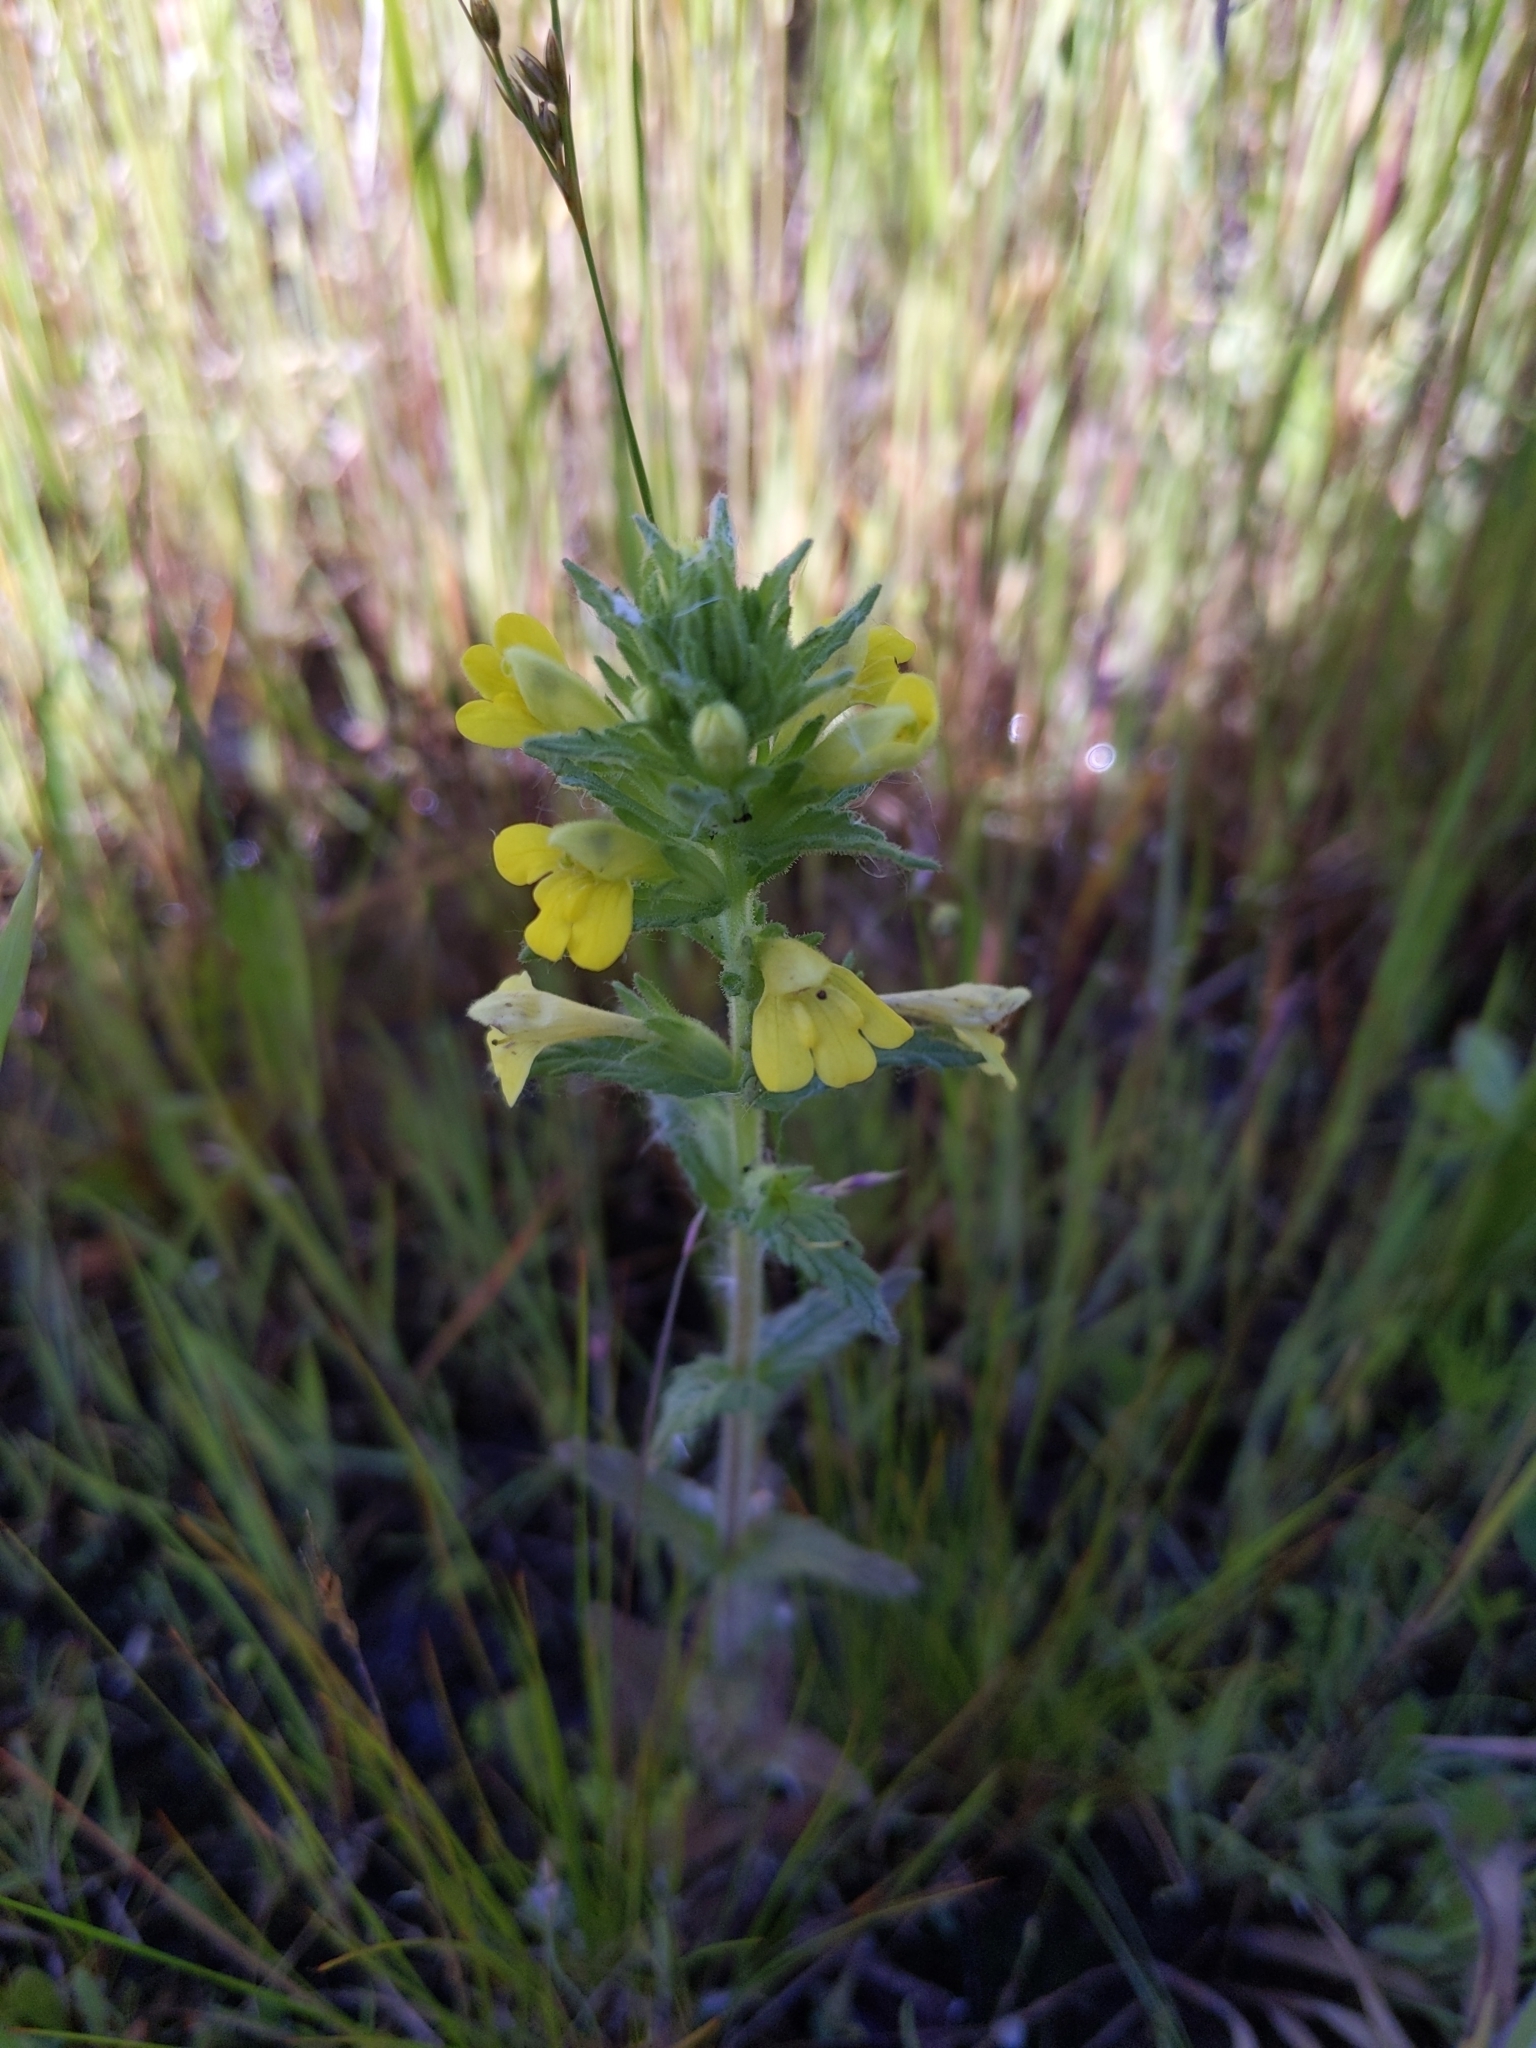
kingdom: Plantae
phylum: Tracheophyta
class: Magnoliopsida
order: Lamiales
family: Orobanchaceae
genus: Bellardia
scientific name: Bellardia viscosa
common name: Sticky parentucellia
